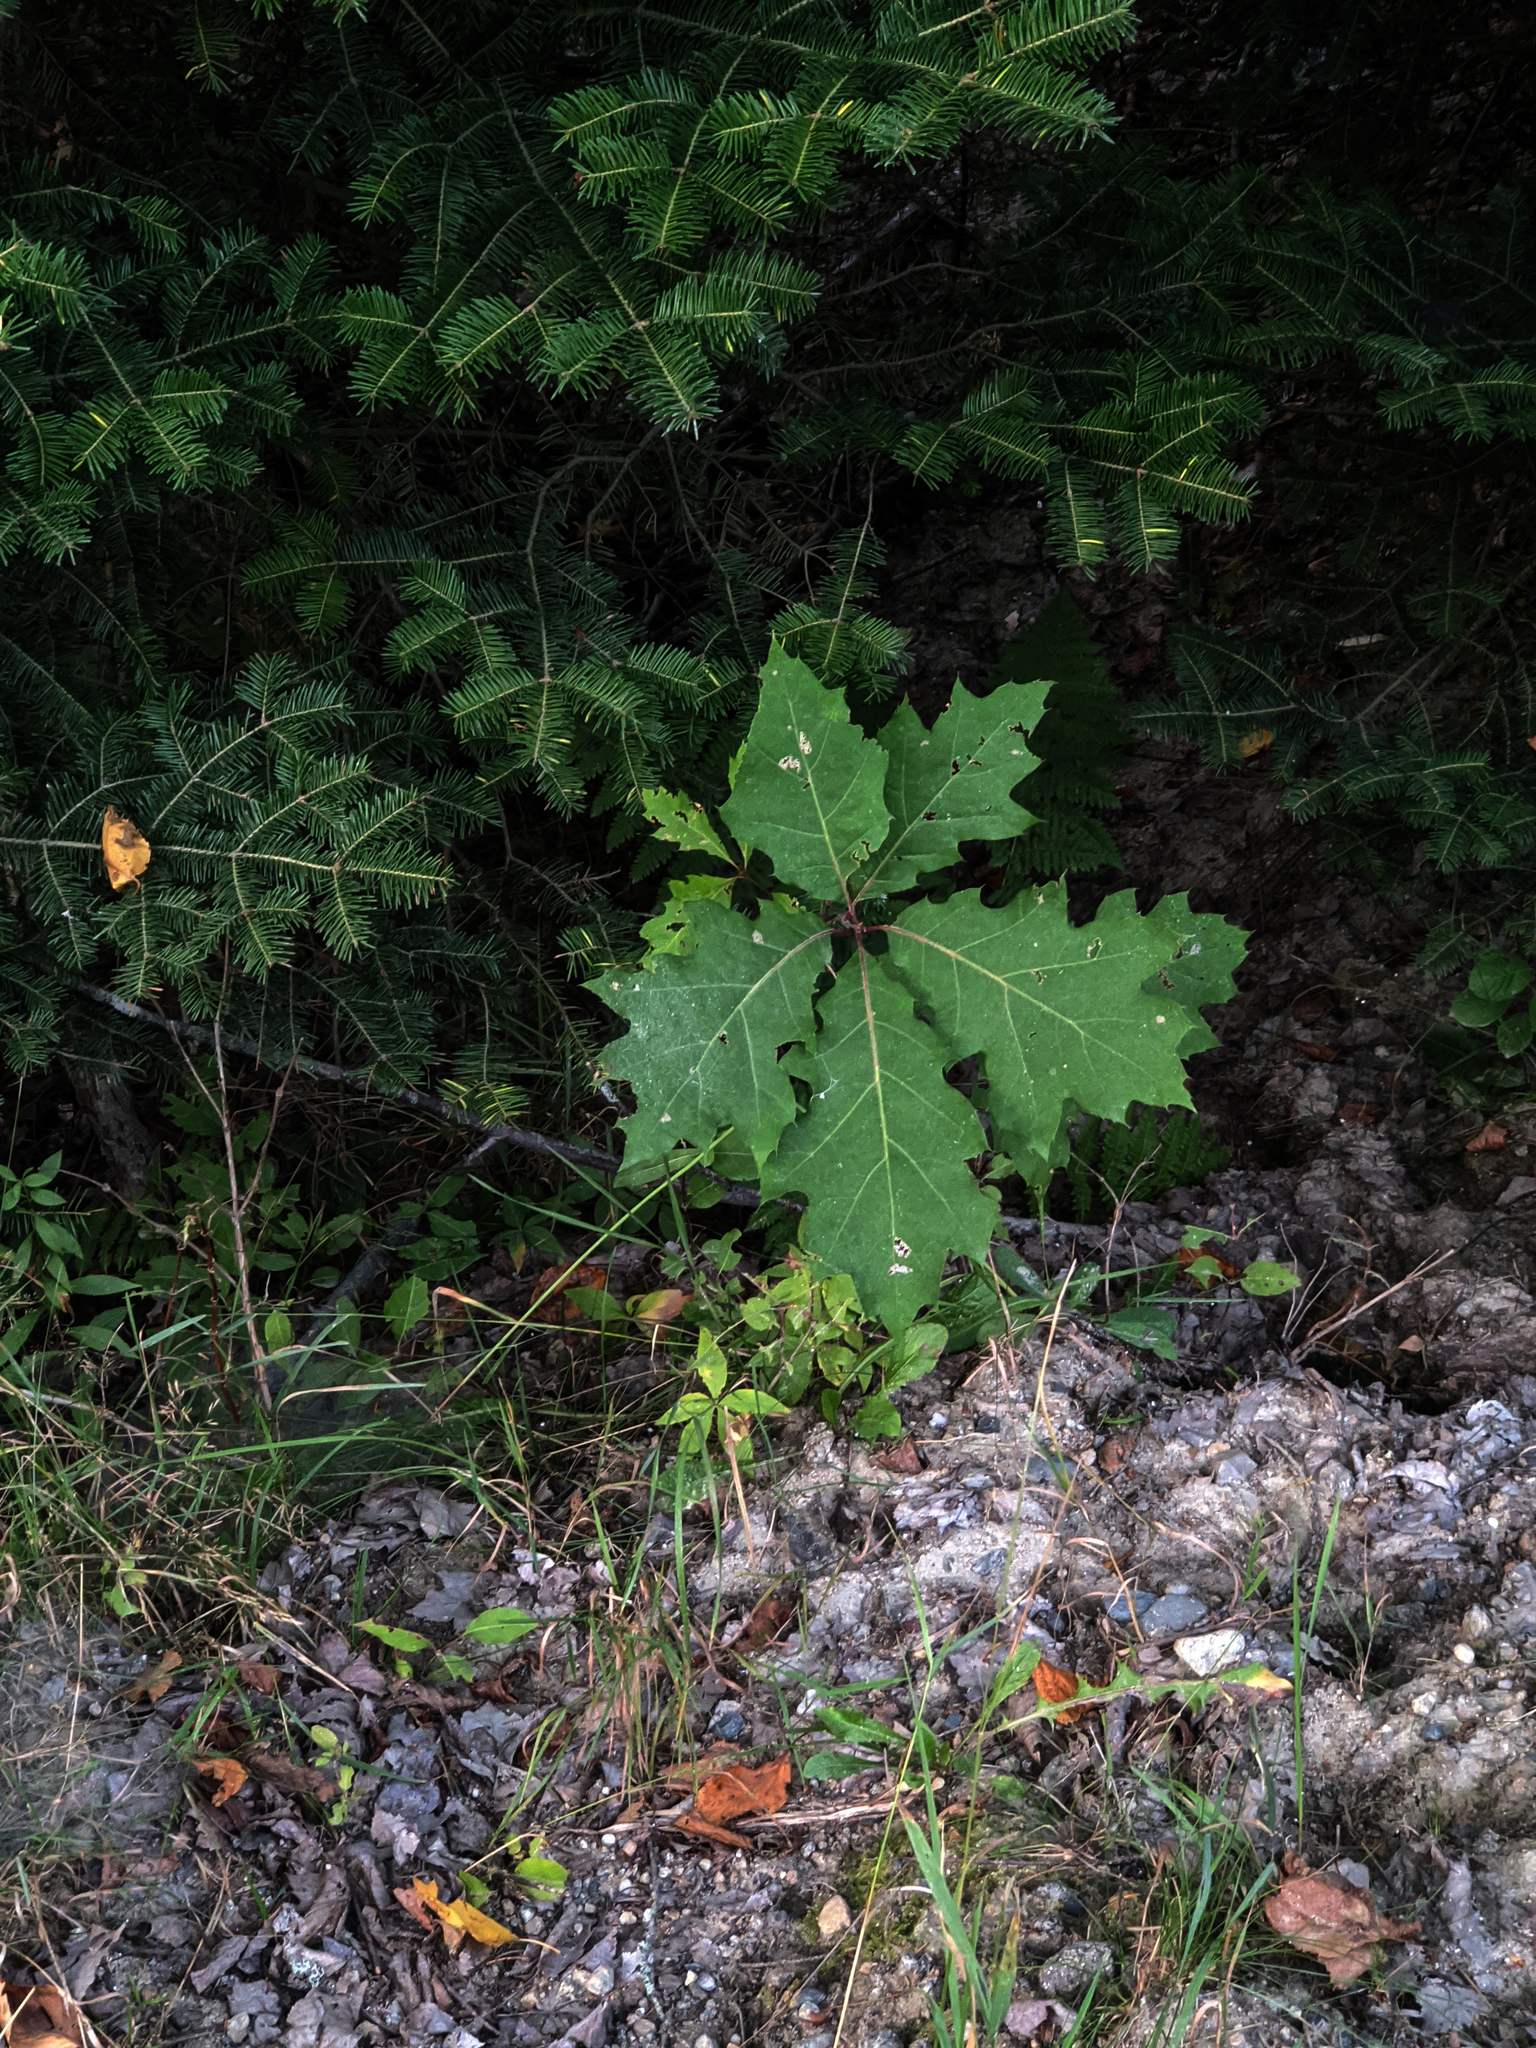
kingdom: Plantae
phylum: Tracheophyta
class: Pinopsida
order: Pinales
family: Pinaceae
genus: Abies
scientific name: Abies balsamea
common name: Balsam fir
